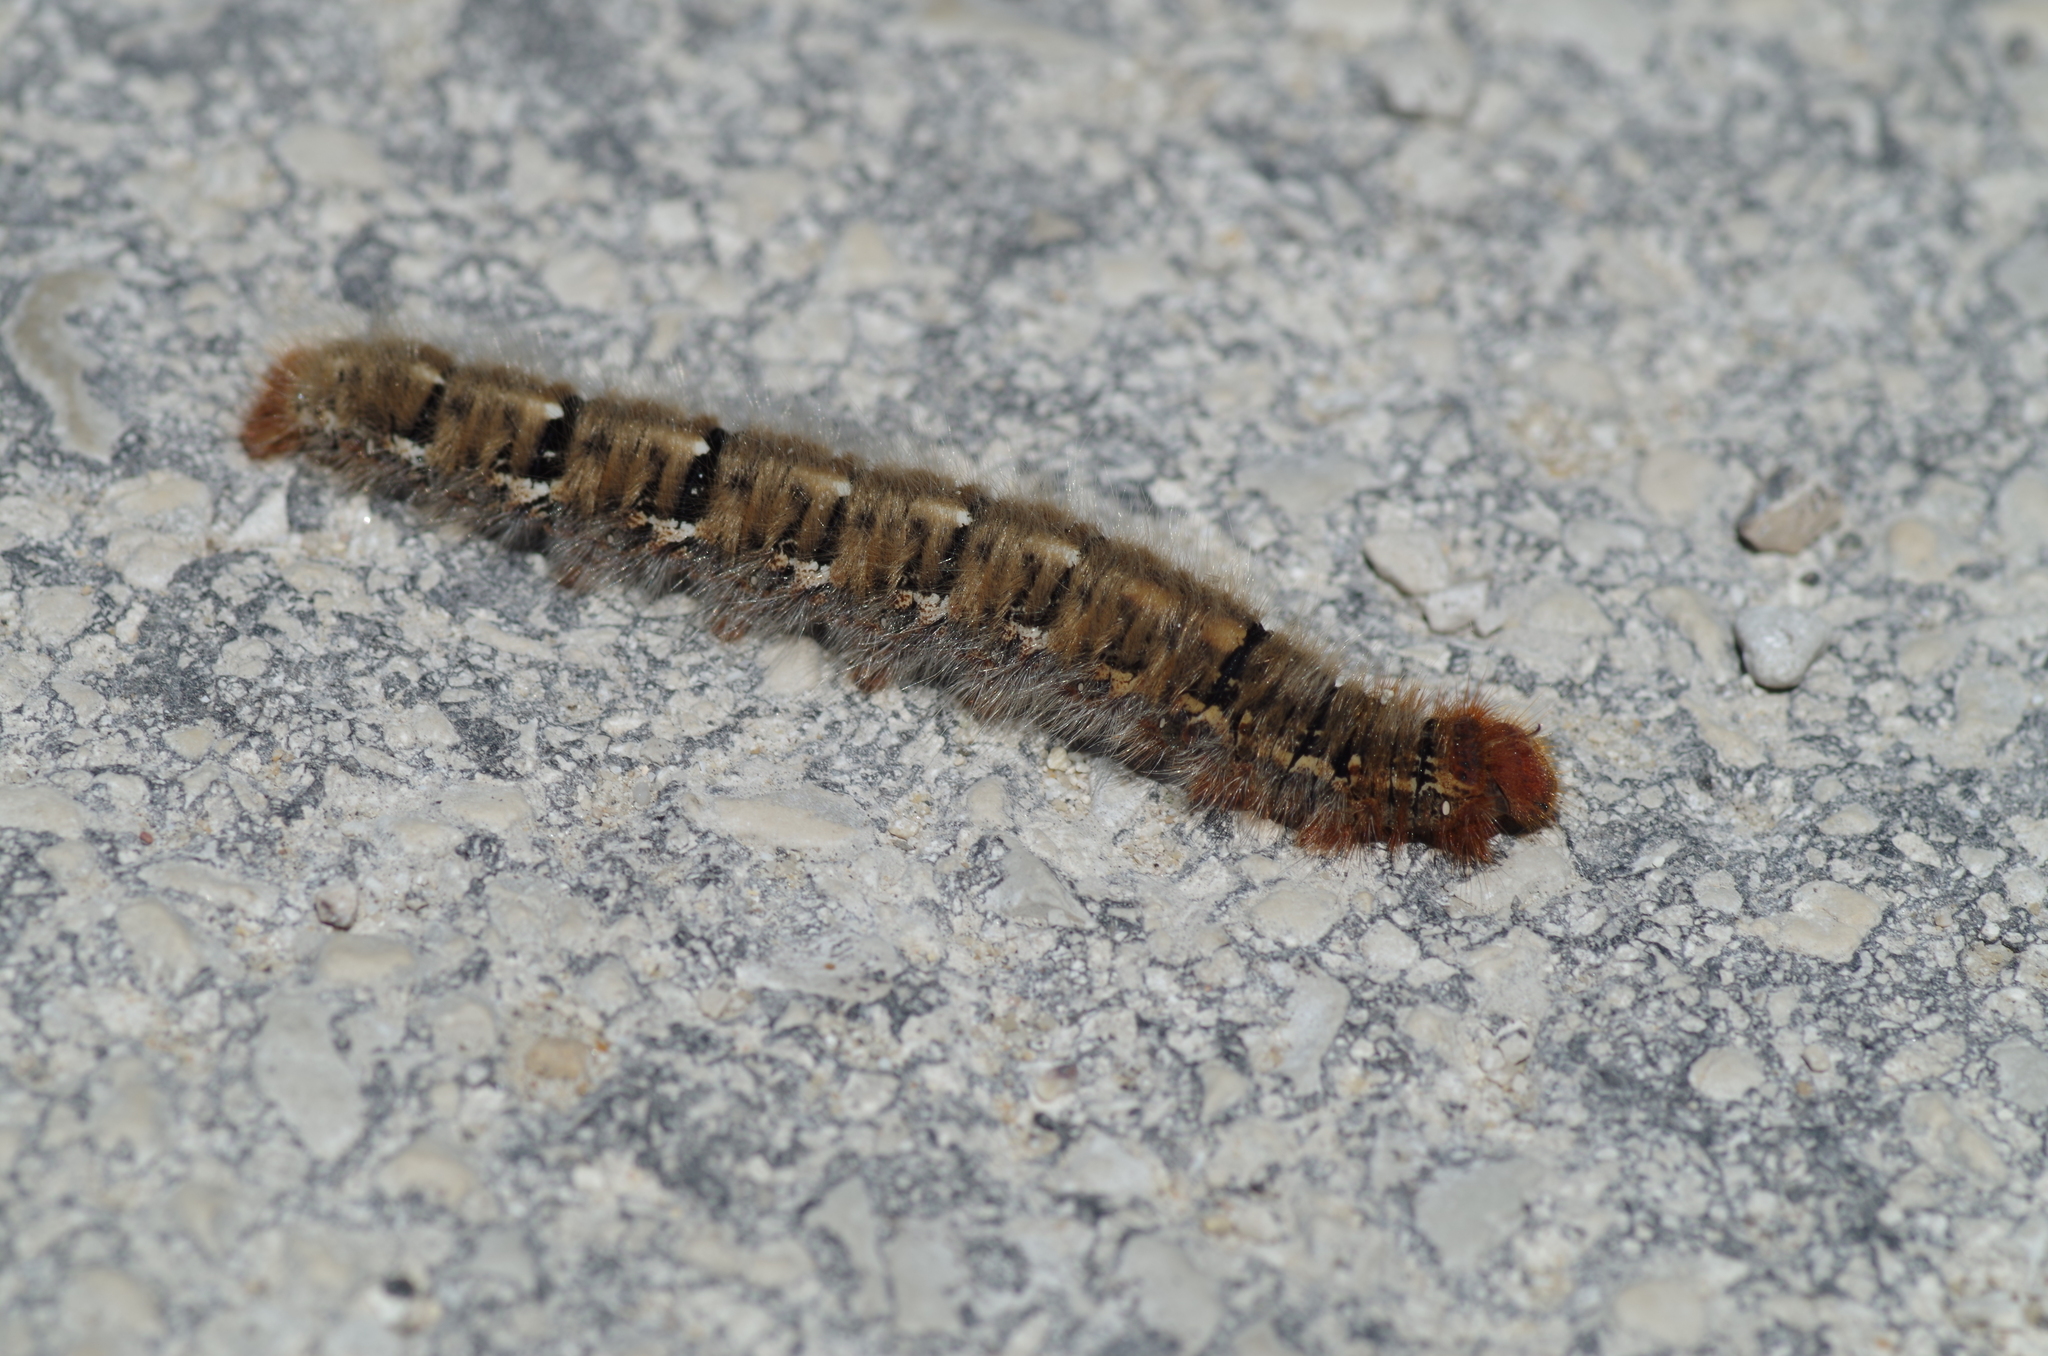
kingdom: Animalia
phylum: Arthropoda
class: Insecta
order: Lepidoptera
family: Lasiocampidae
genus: Lasiocampa
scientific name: Lasiocampa quercus
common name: Oak eggar
